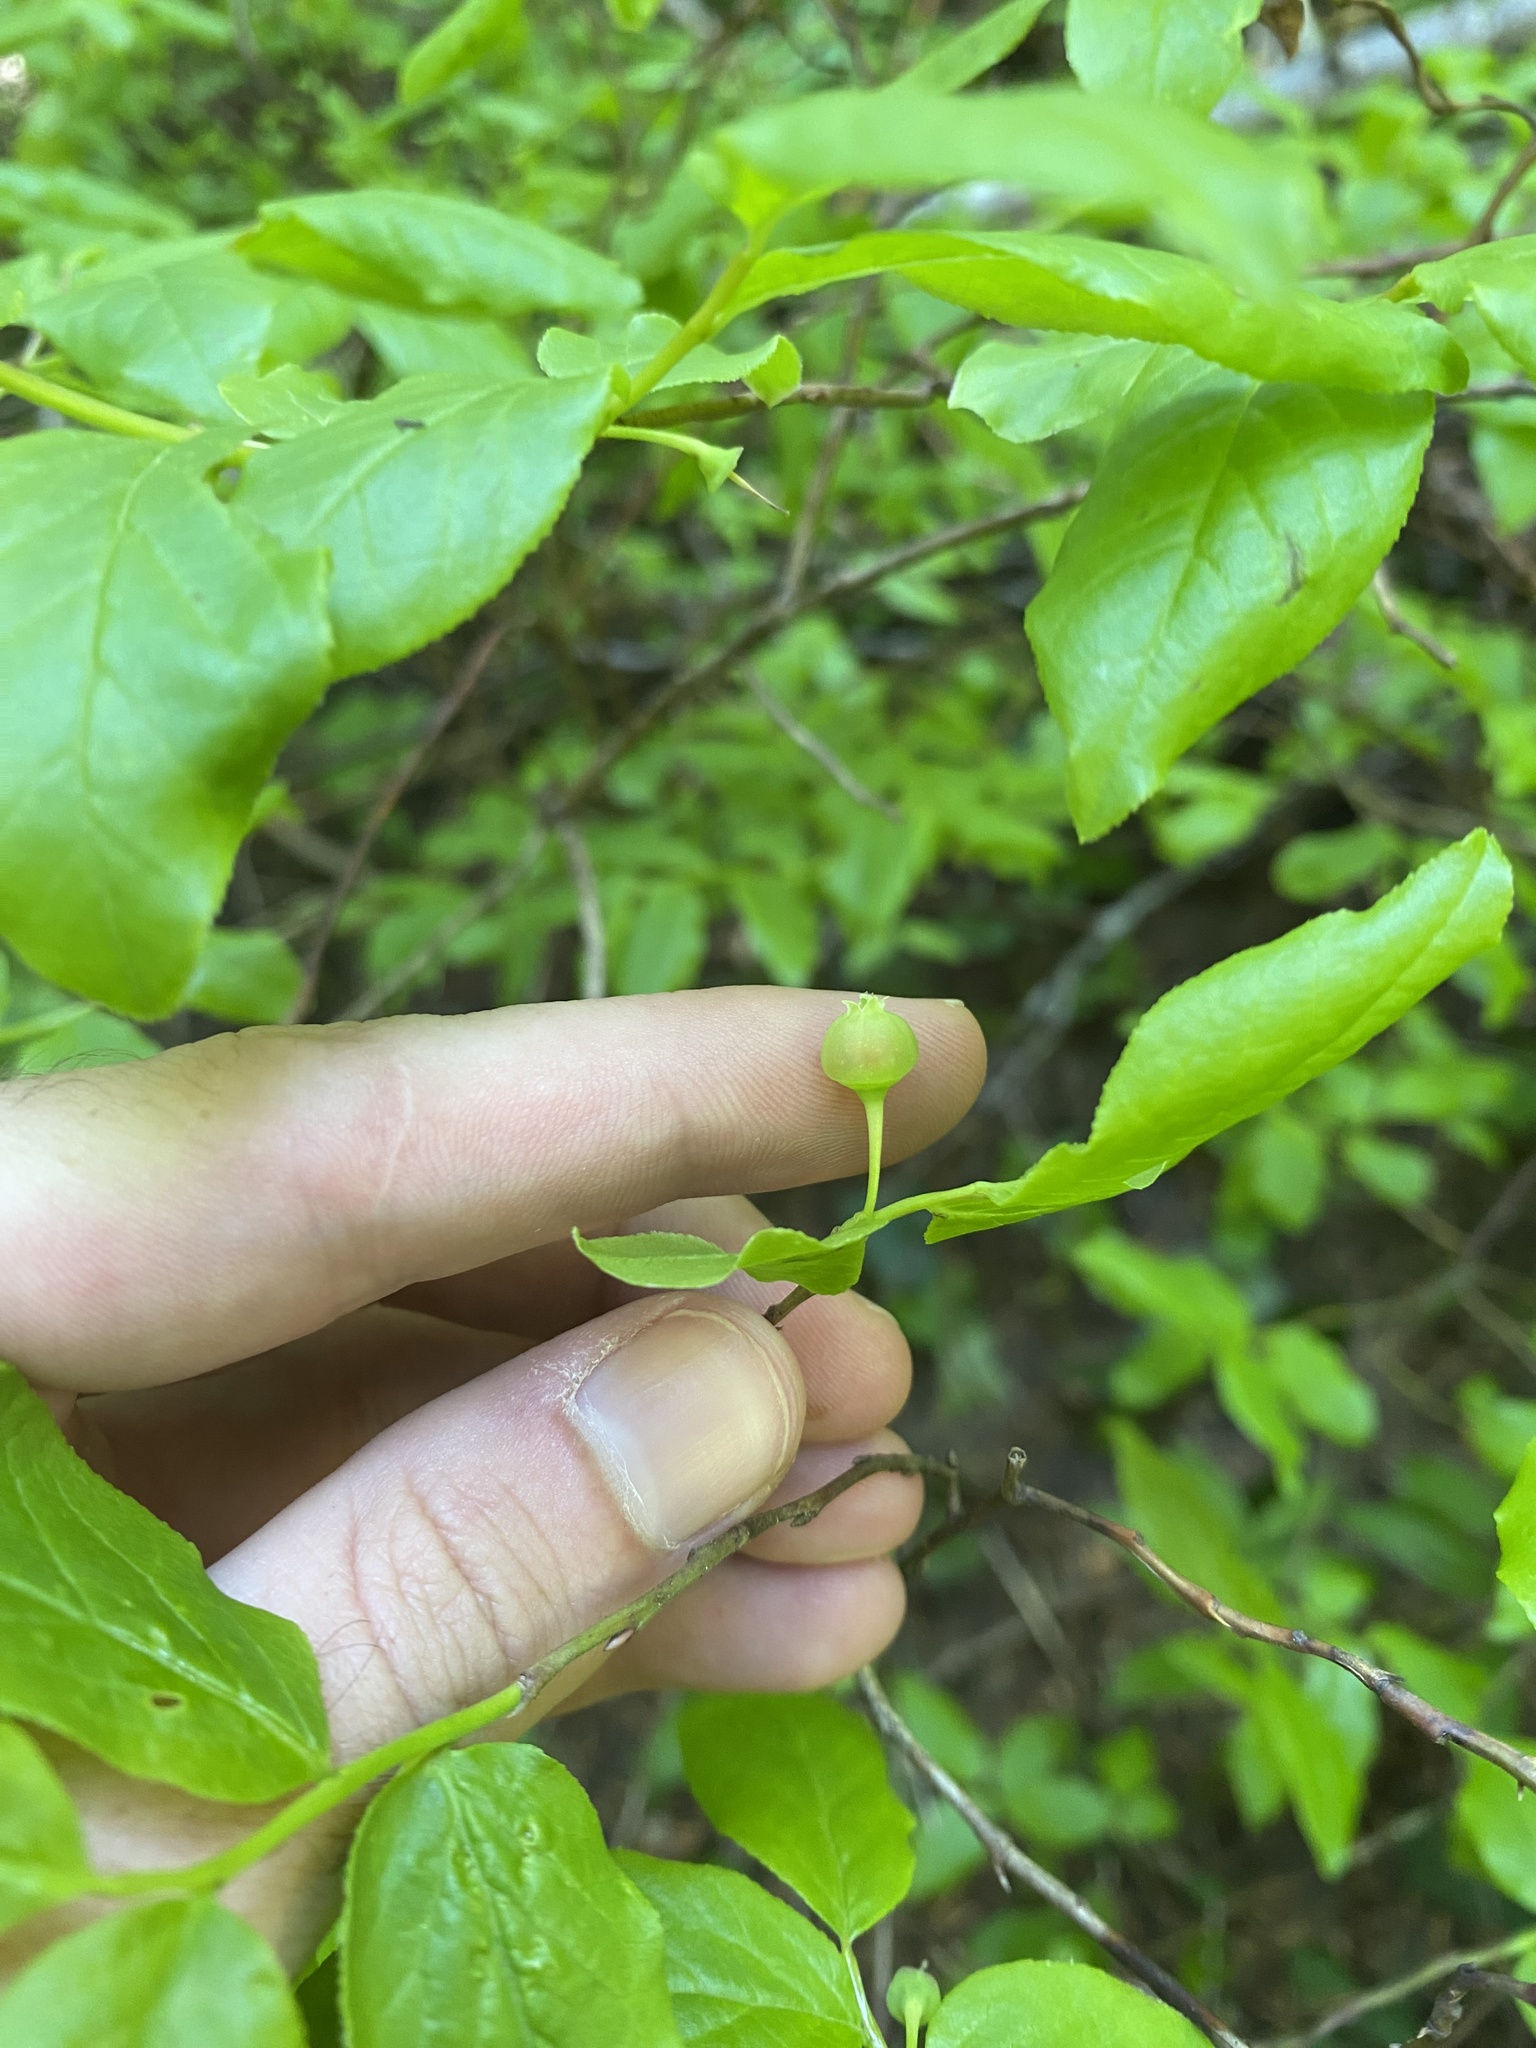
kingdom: Plantae
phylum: Tracheophyta
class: Magnoliopsida
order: Ericales
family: Ericaceae
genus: Vaccinium
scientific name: Vaccinium membranaceum
